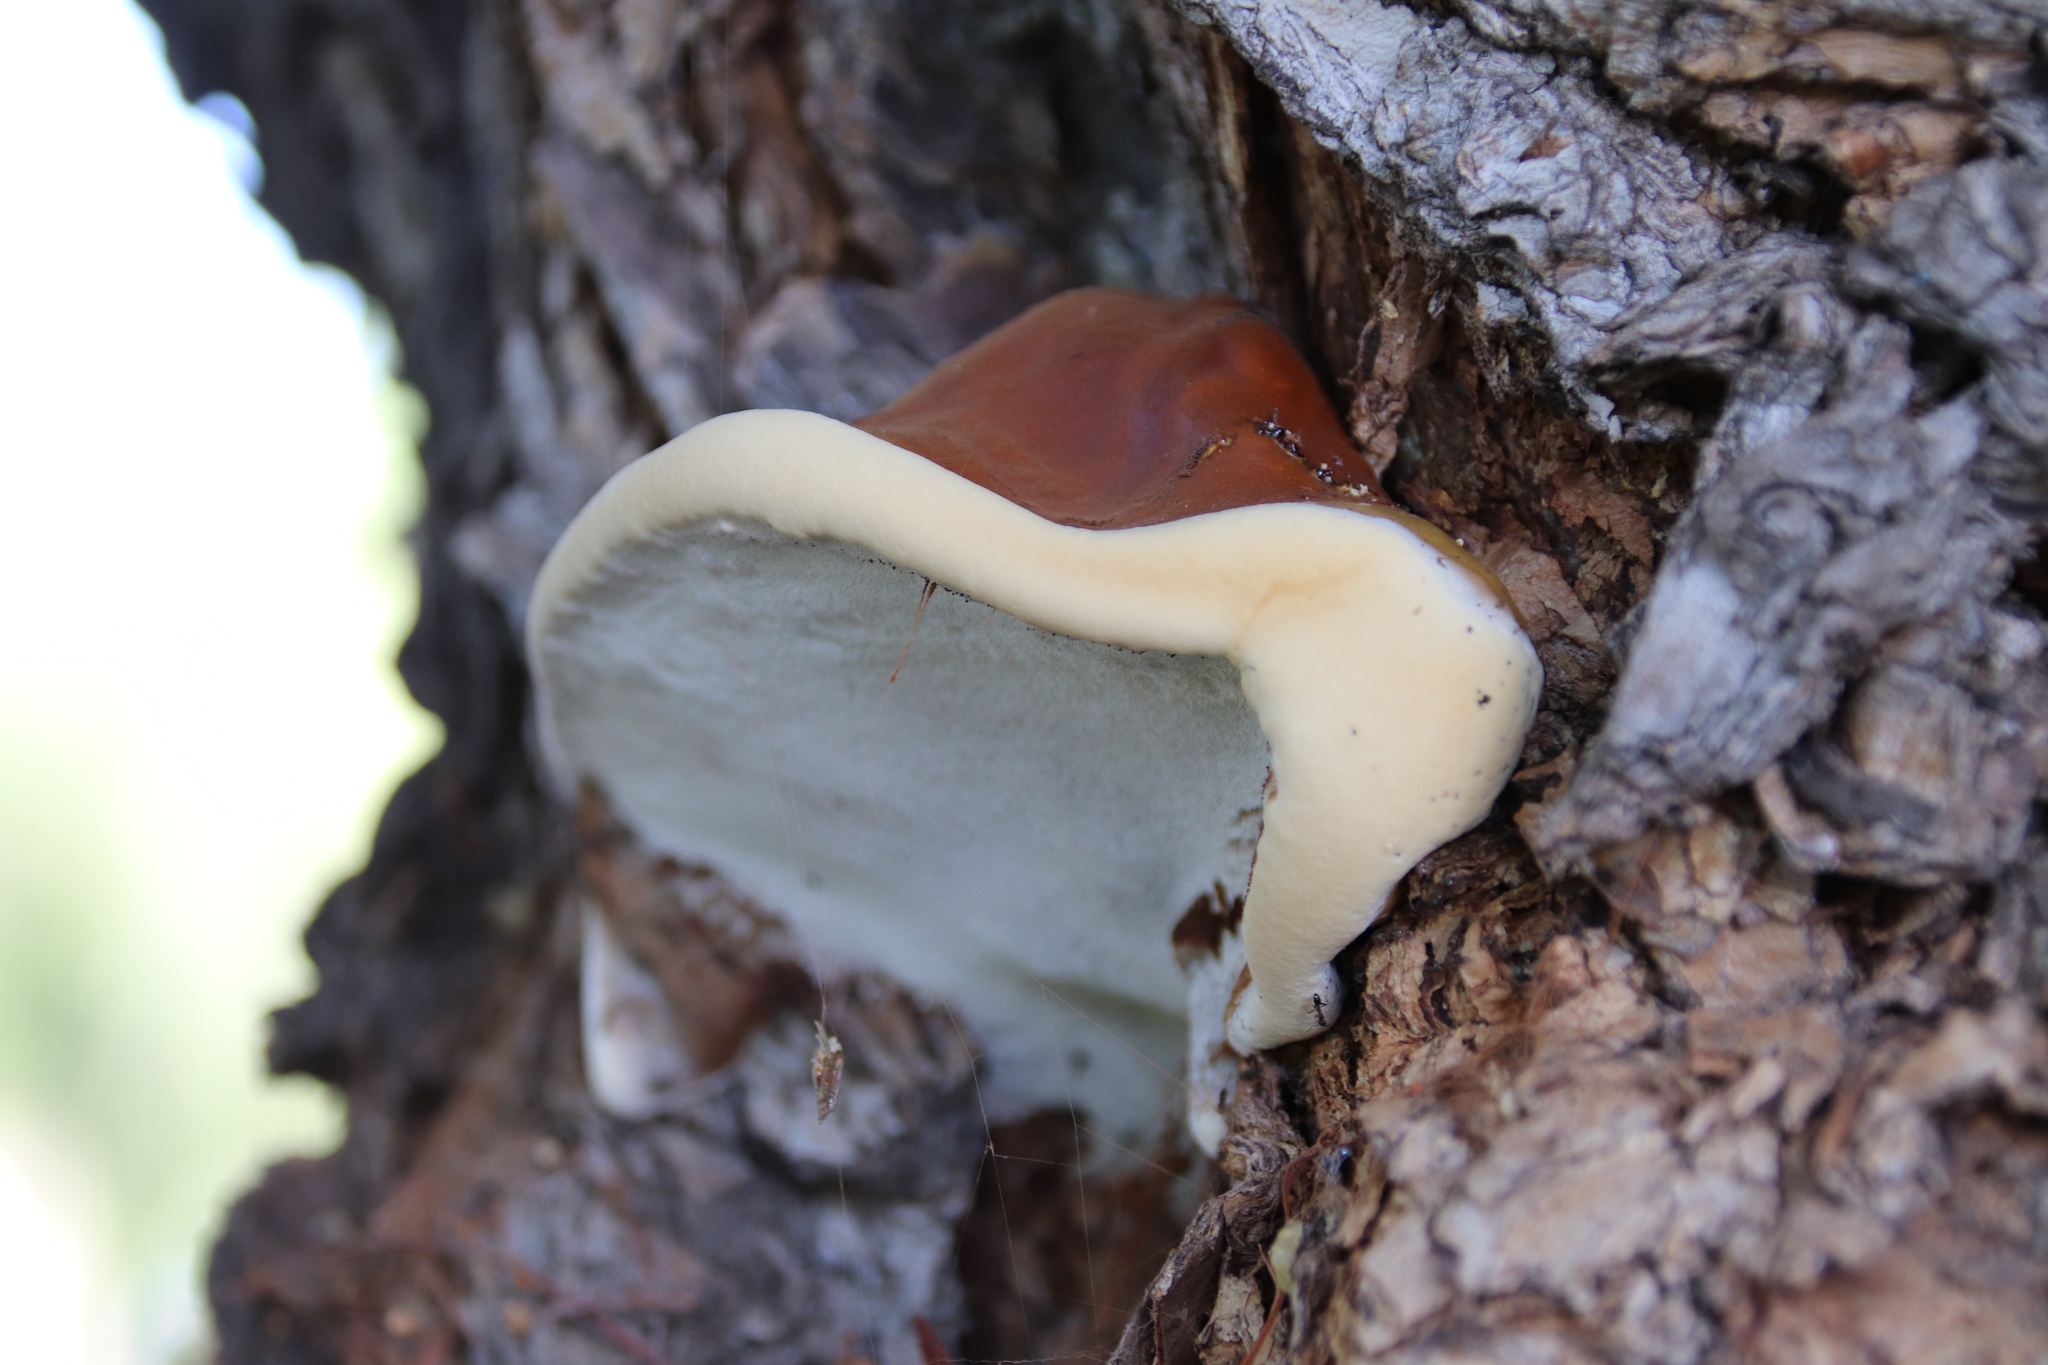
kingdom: Fungi
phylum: Basidiomycota
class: Agaricomycetes
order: Polyporales
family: Polyporaceae
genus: Ganoderma
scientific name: Ganoderma polychromum
